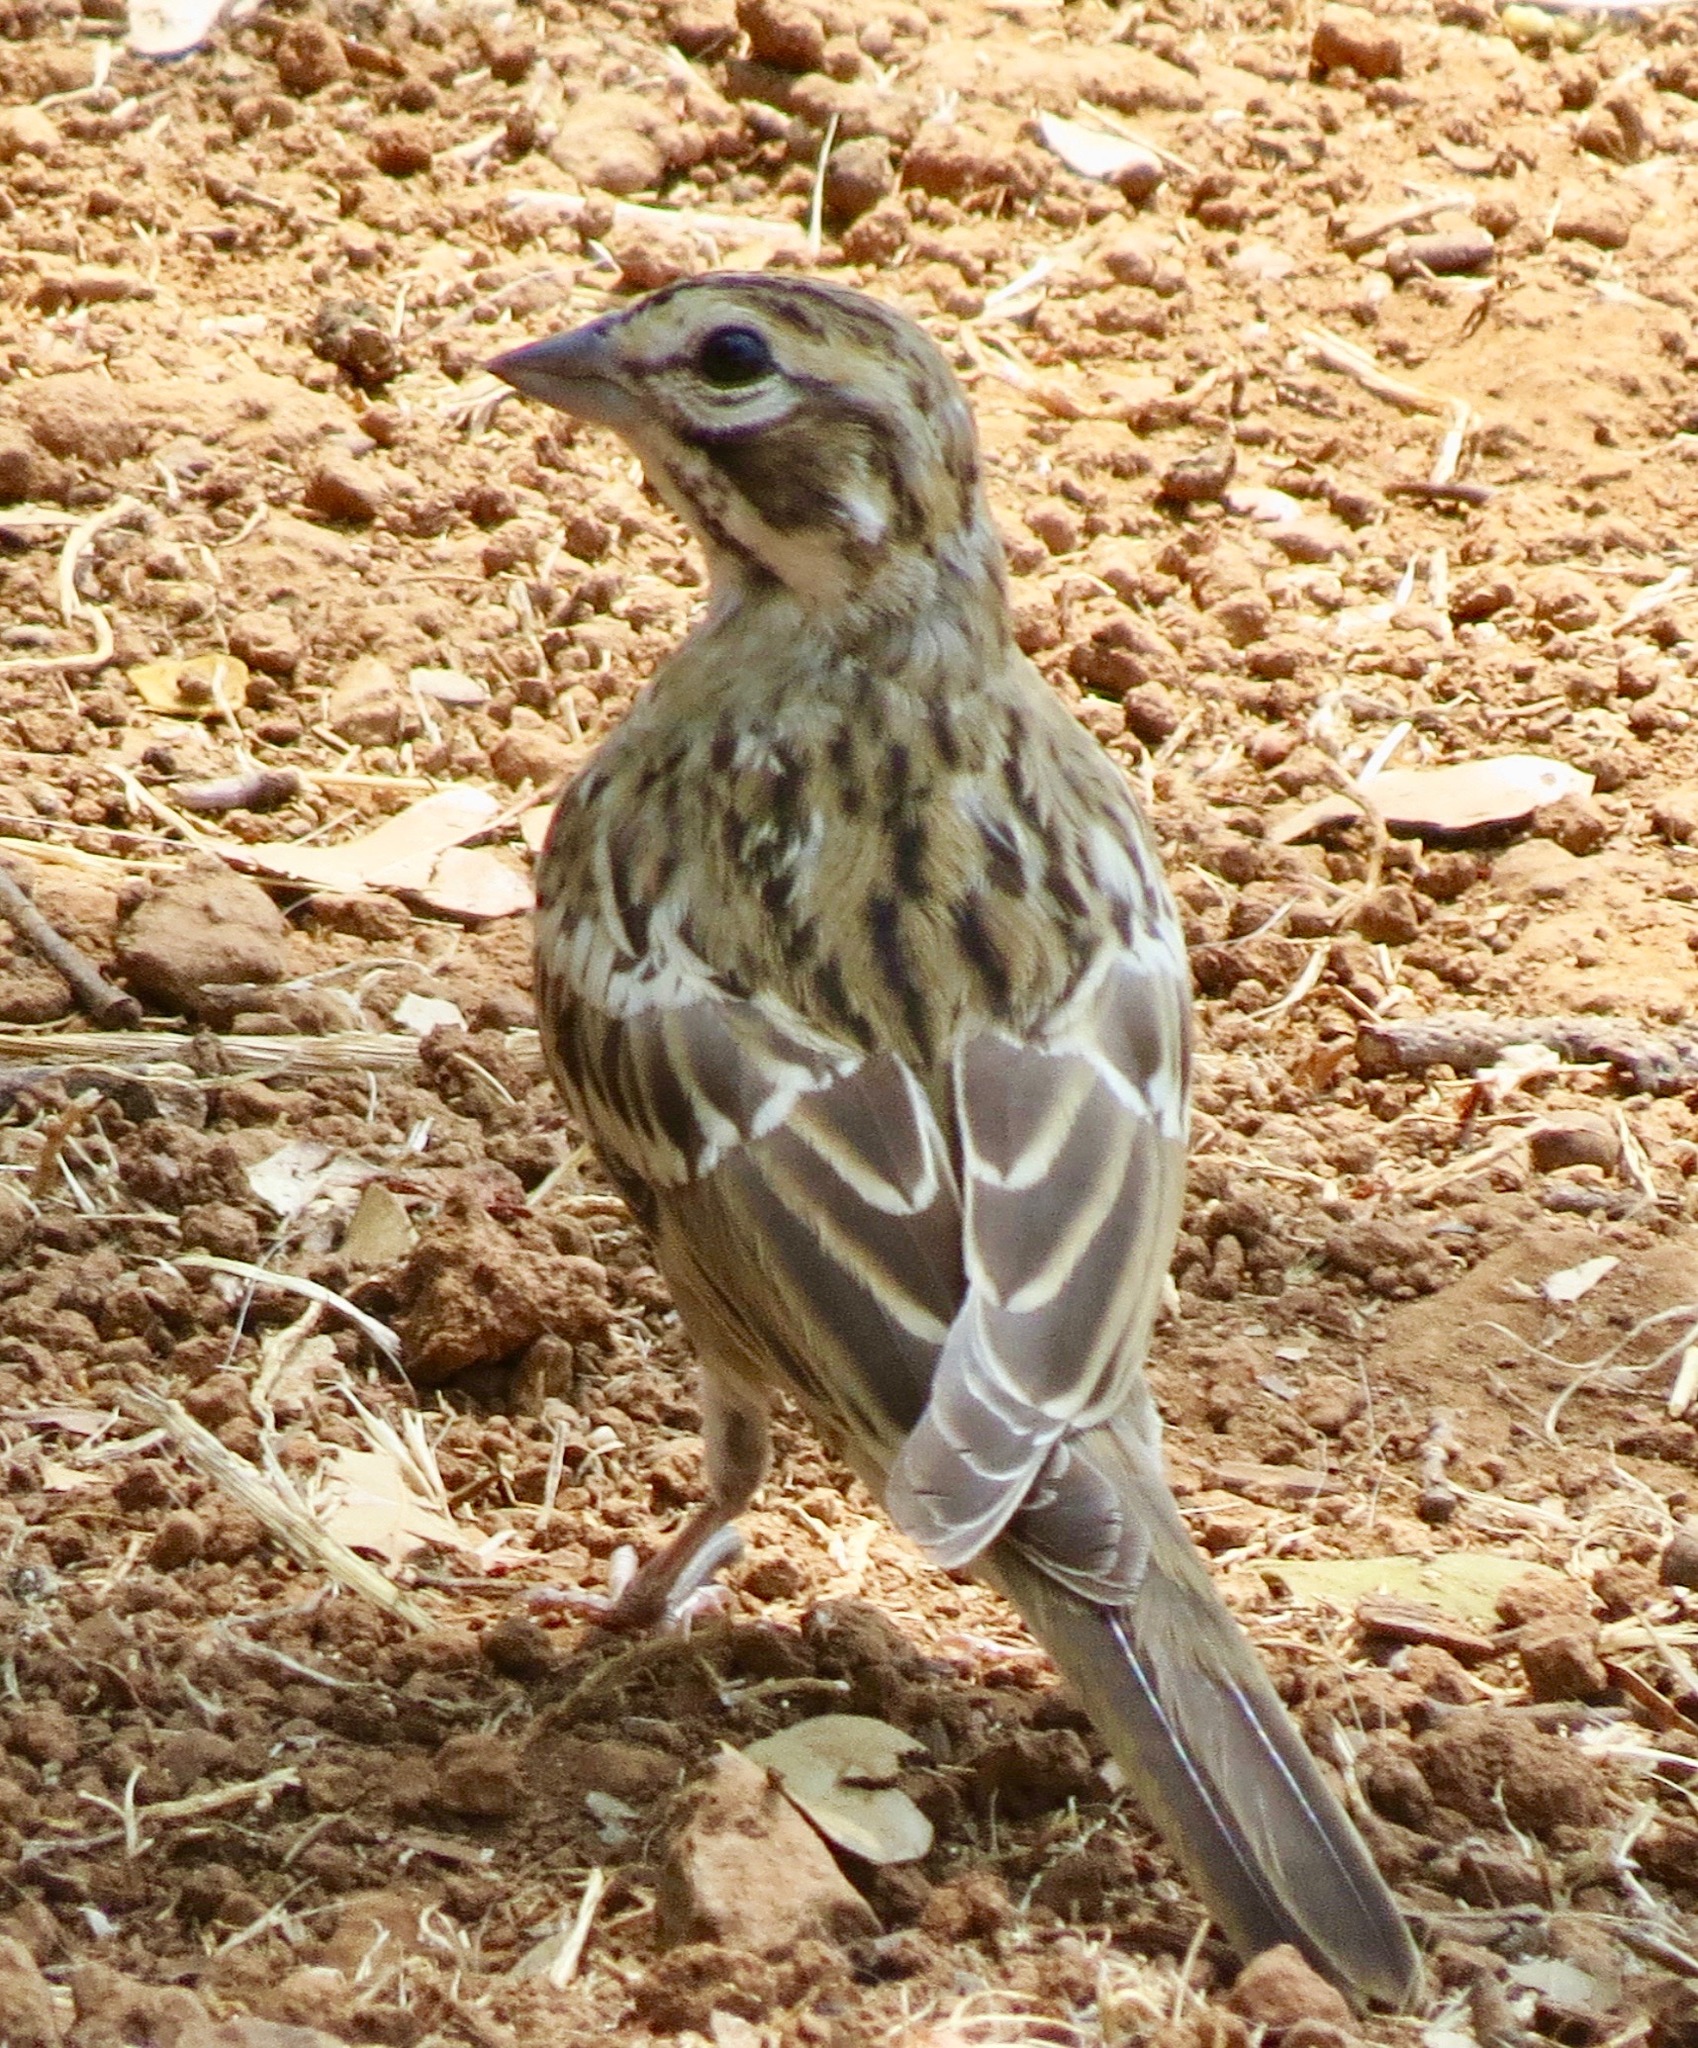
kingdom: Animalia
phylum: Chordata
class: Aves
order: Passeriformes
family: Passerellidae
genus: Chondestes
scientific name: Chondestes grammacus
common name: Lark sparrow
